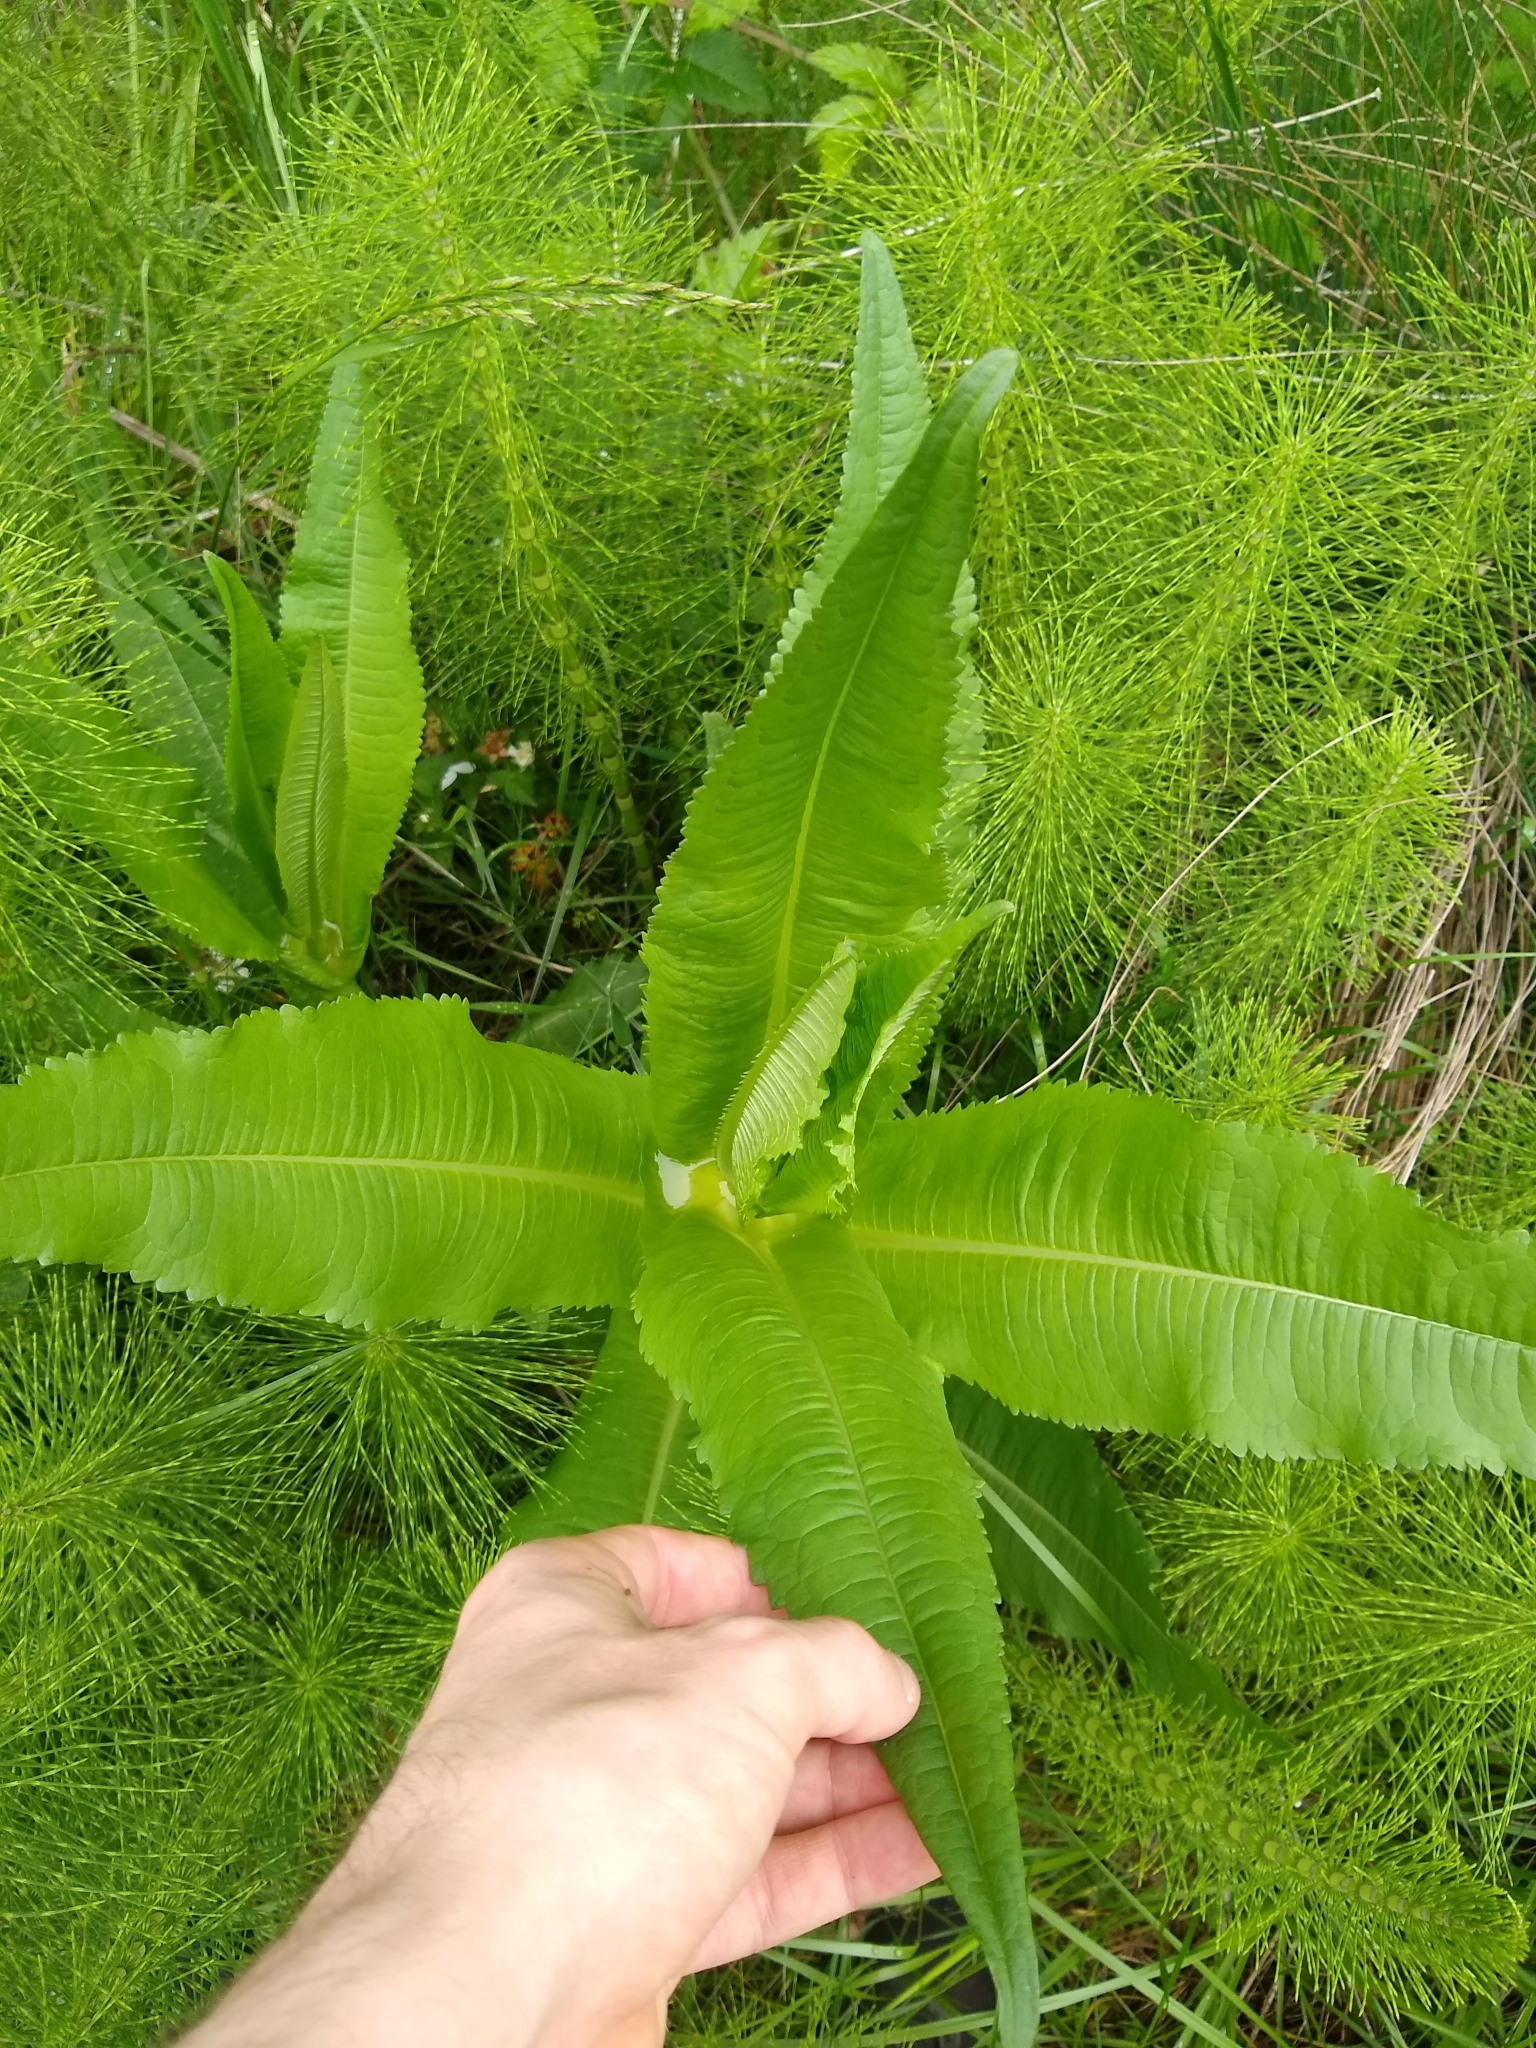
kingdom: Plantae
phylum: Tracheophyta
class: Magnoliopsida
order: Dipsacales
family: Caprifoliaceae
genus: Dipsacus
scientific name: Dipsacus fullonum
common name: Teasel
